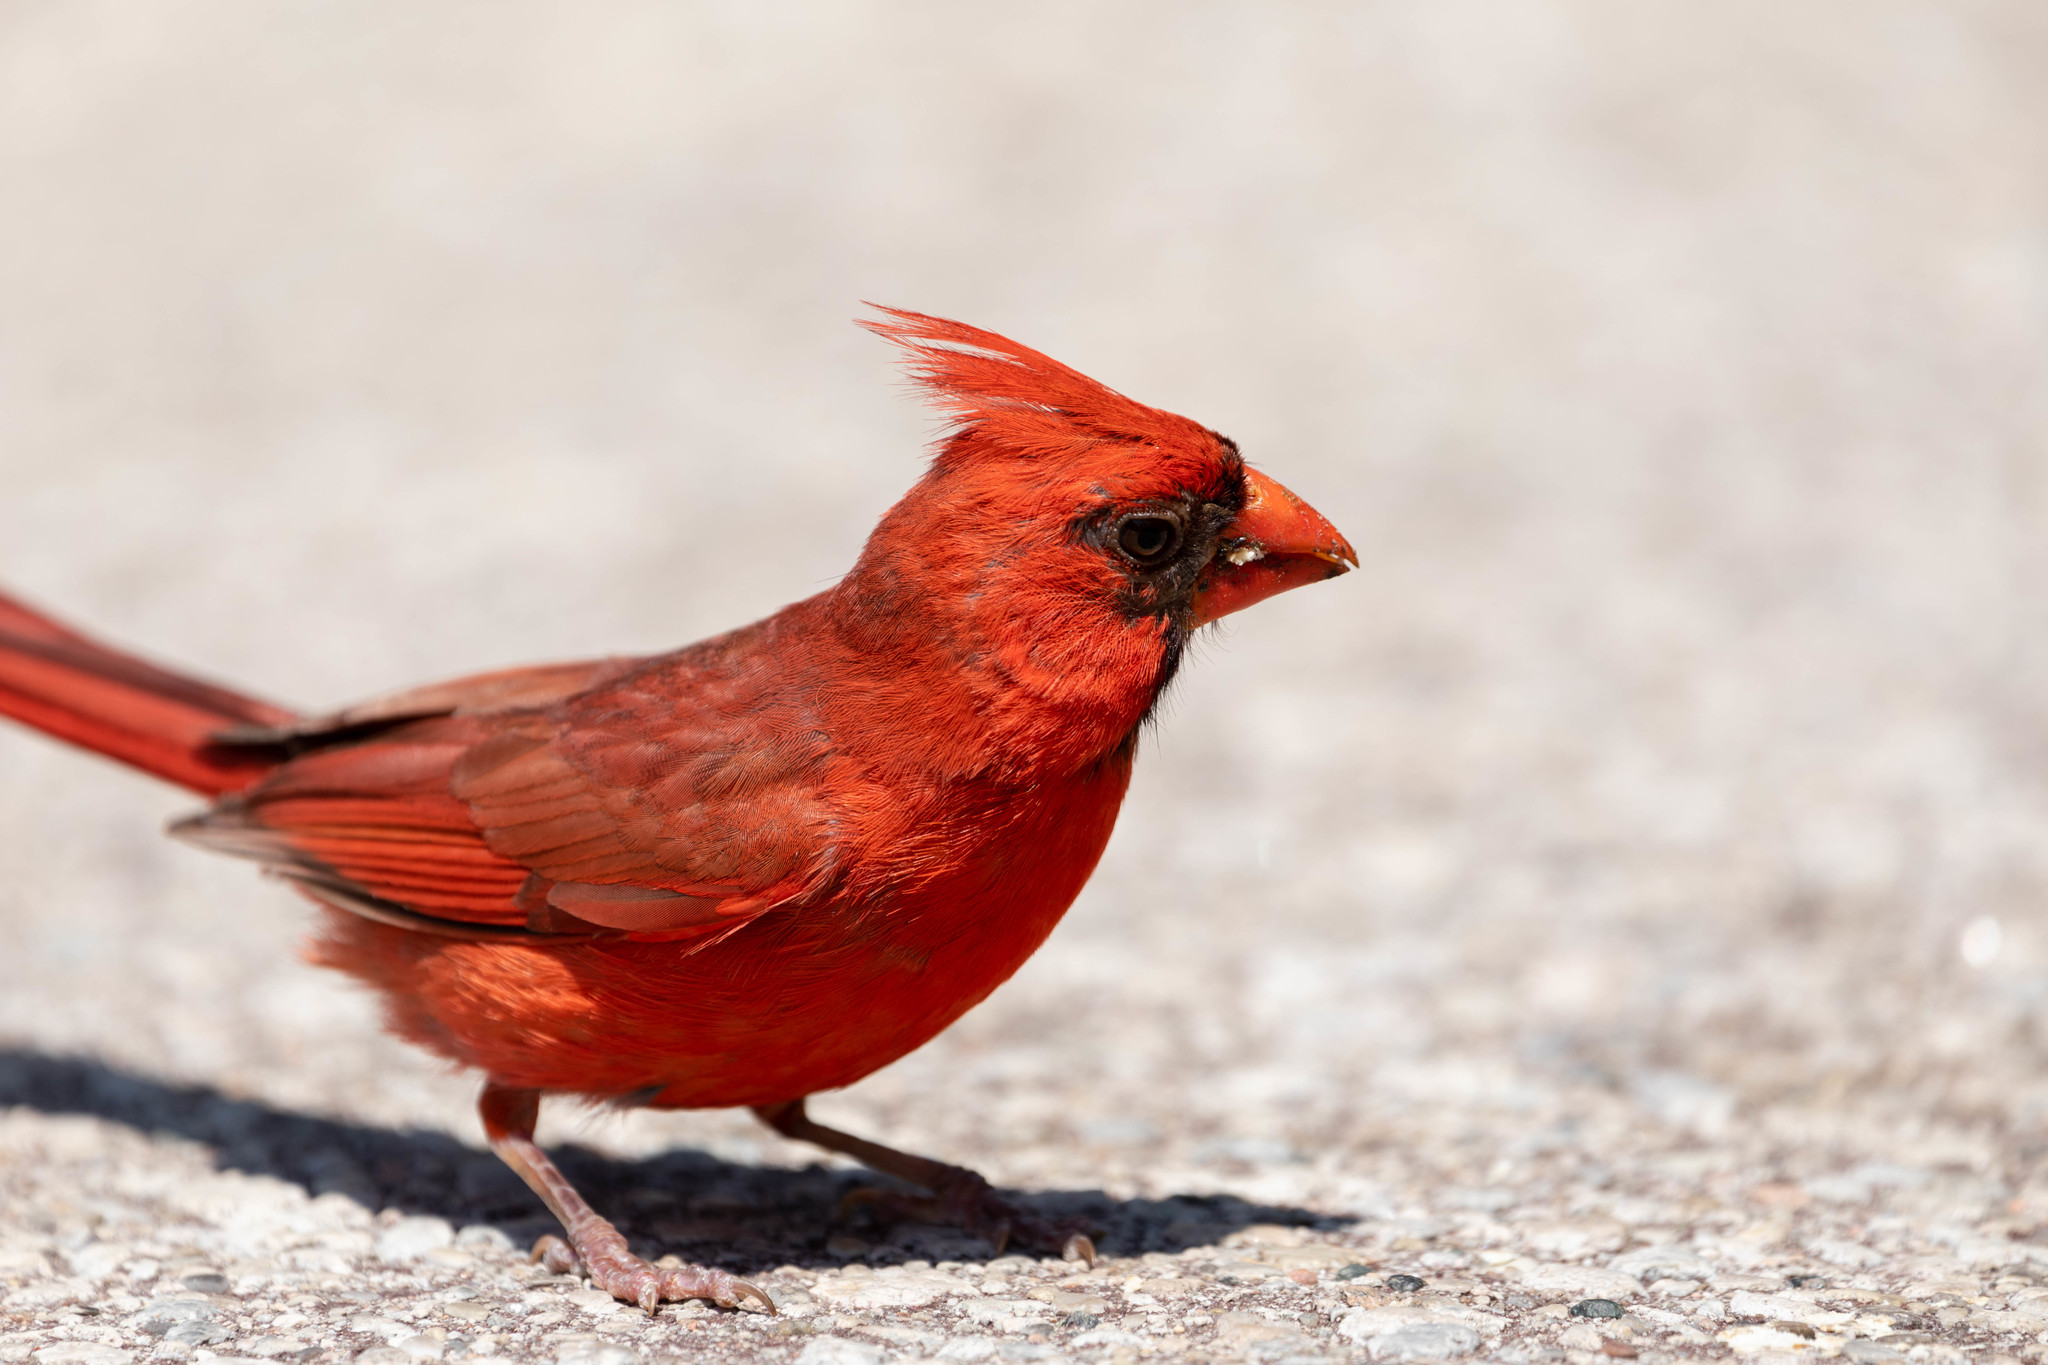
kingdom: Animalia
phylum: Chordata
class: Aves
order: Passeriformes
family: Cardinalidae
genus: Cardinalis
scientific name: Cardinalis cardinalis
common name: Northern cardinal
